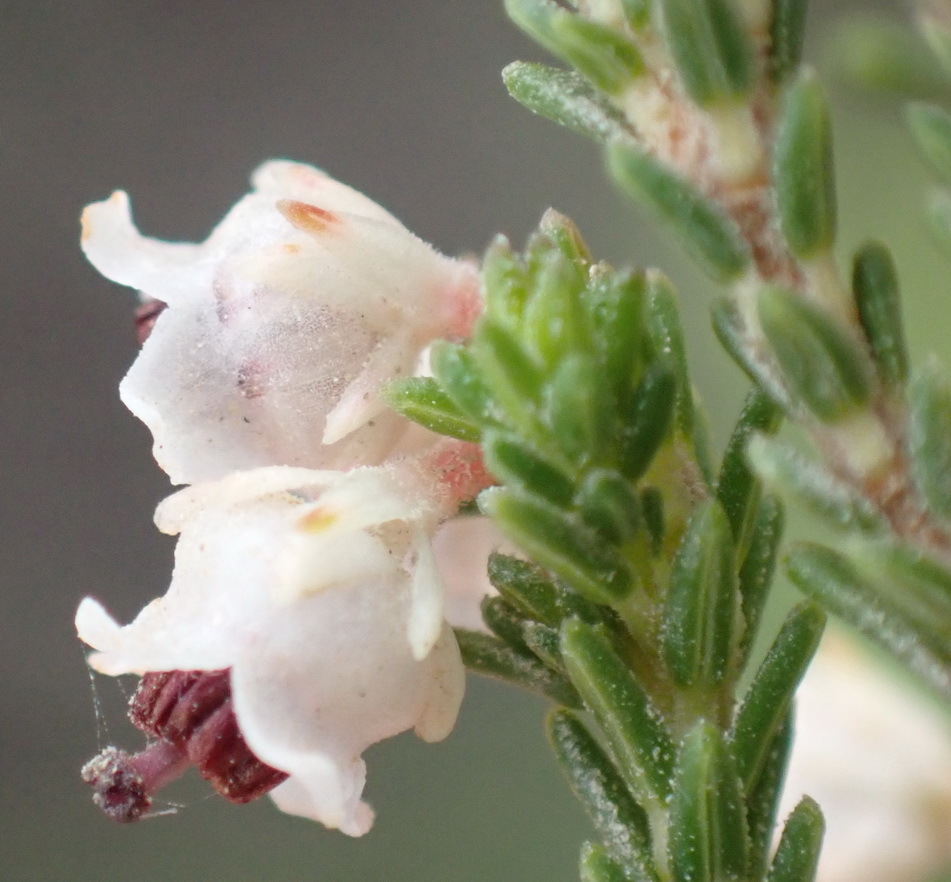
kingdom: Plantae
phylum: Tracheophyta
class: Magnoliopsida
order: Ericales
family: Ericaceae
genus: Erica
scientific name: Erica zwartbergensis
